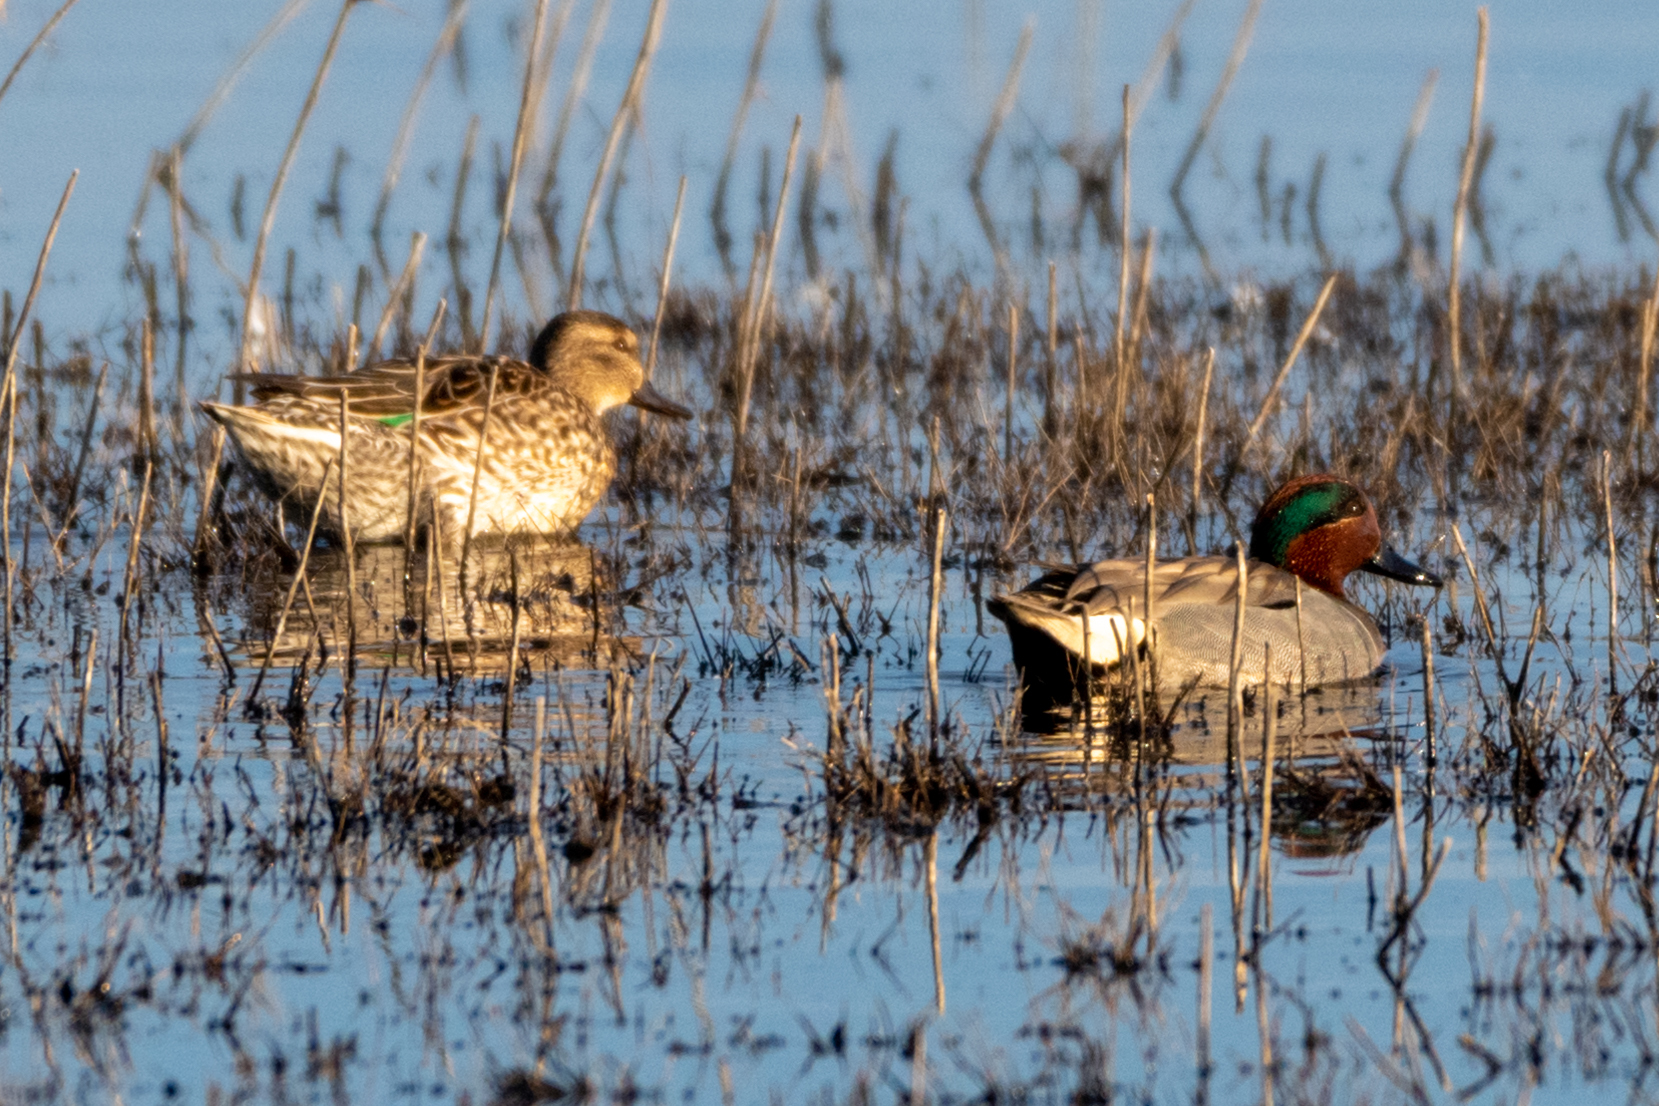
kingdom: Animalia
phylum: Chordata
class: Aves
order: Anseriformes
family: Anatidae
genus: Anas
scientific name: Anas crecca
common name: Eurasian teal
